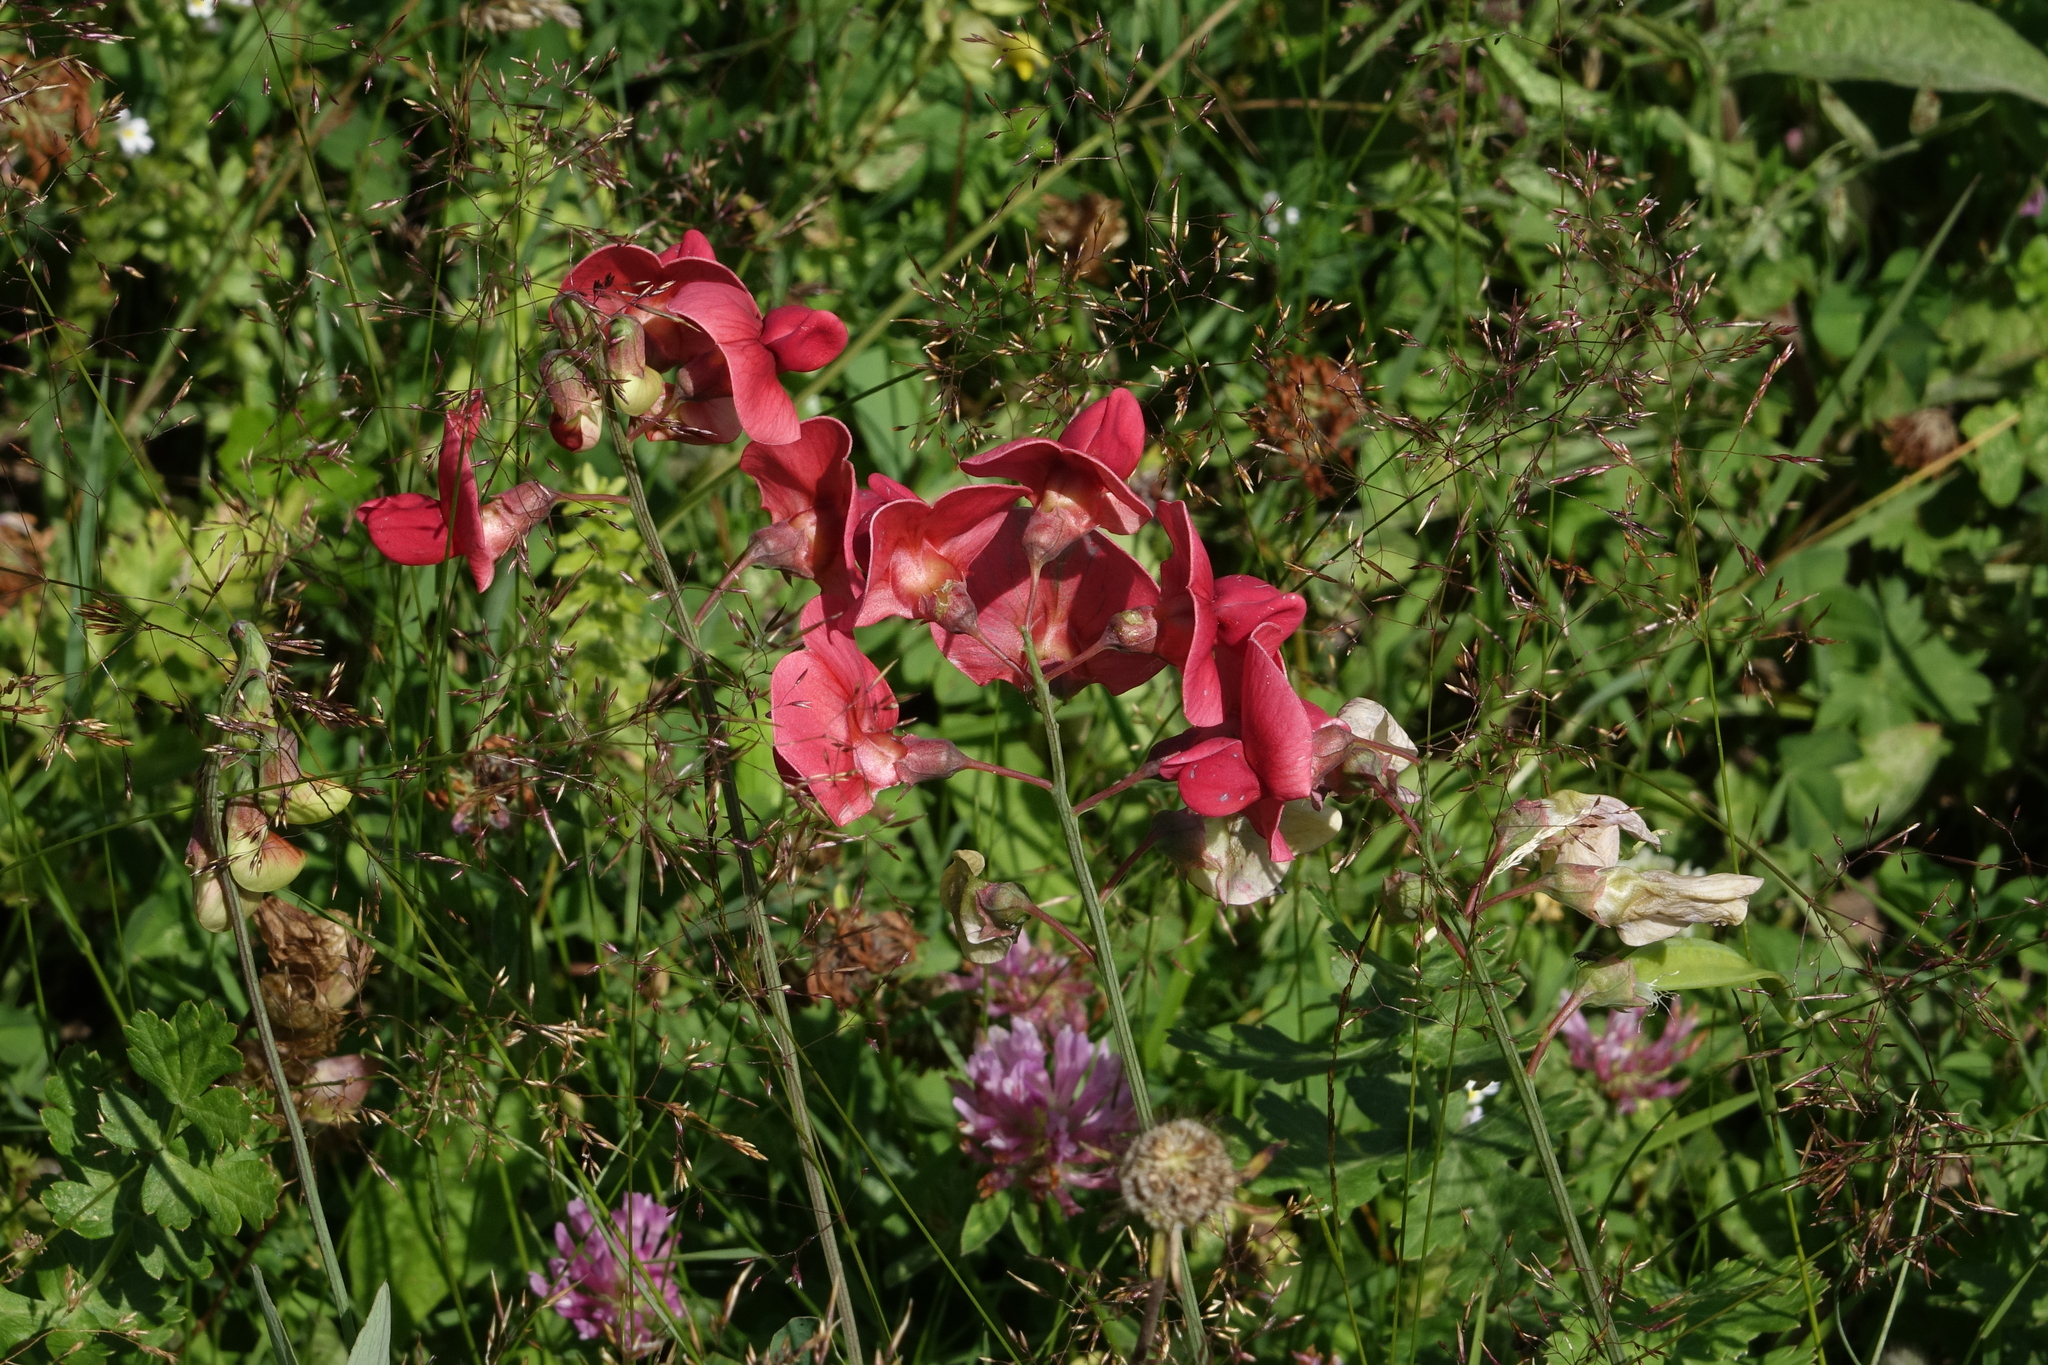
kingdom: Plantae
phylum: Tracheophyta
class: Magnoliopsida
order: Fabales
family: Fabaceae
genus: Lathyrus
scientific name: Lathyrus miniatus
